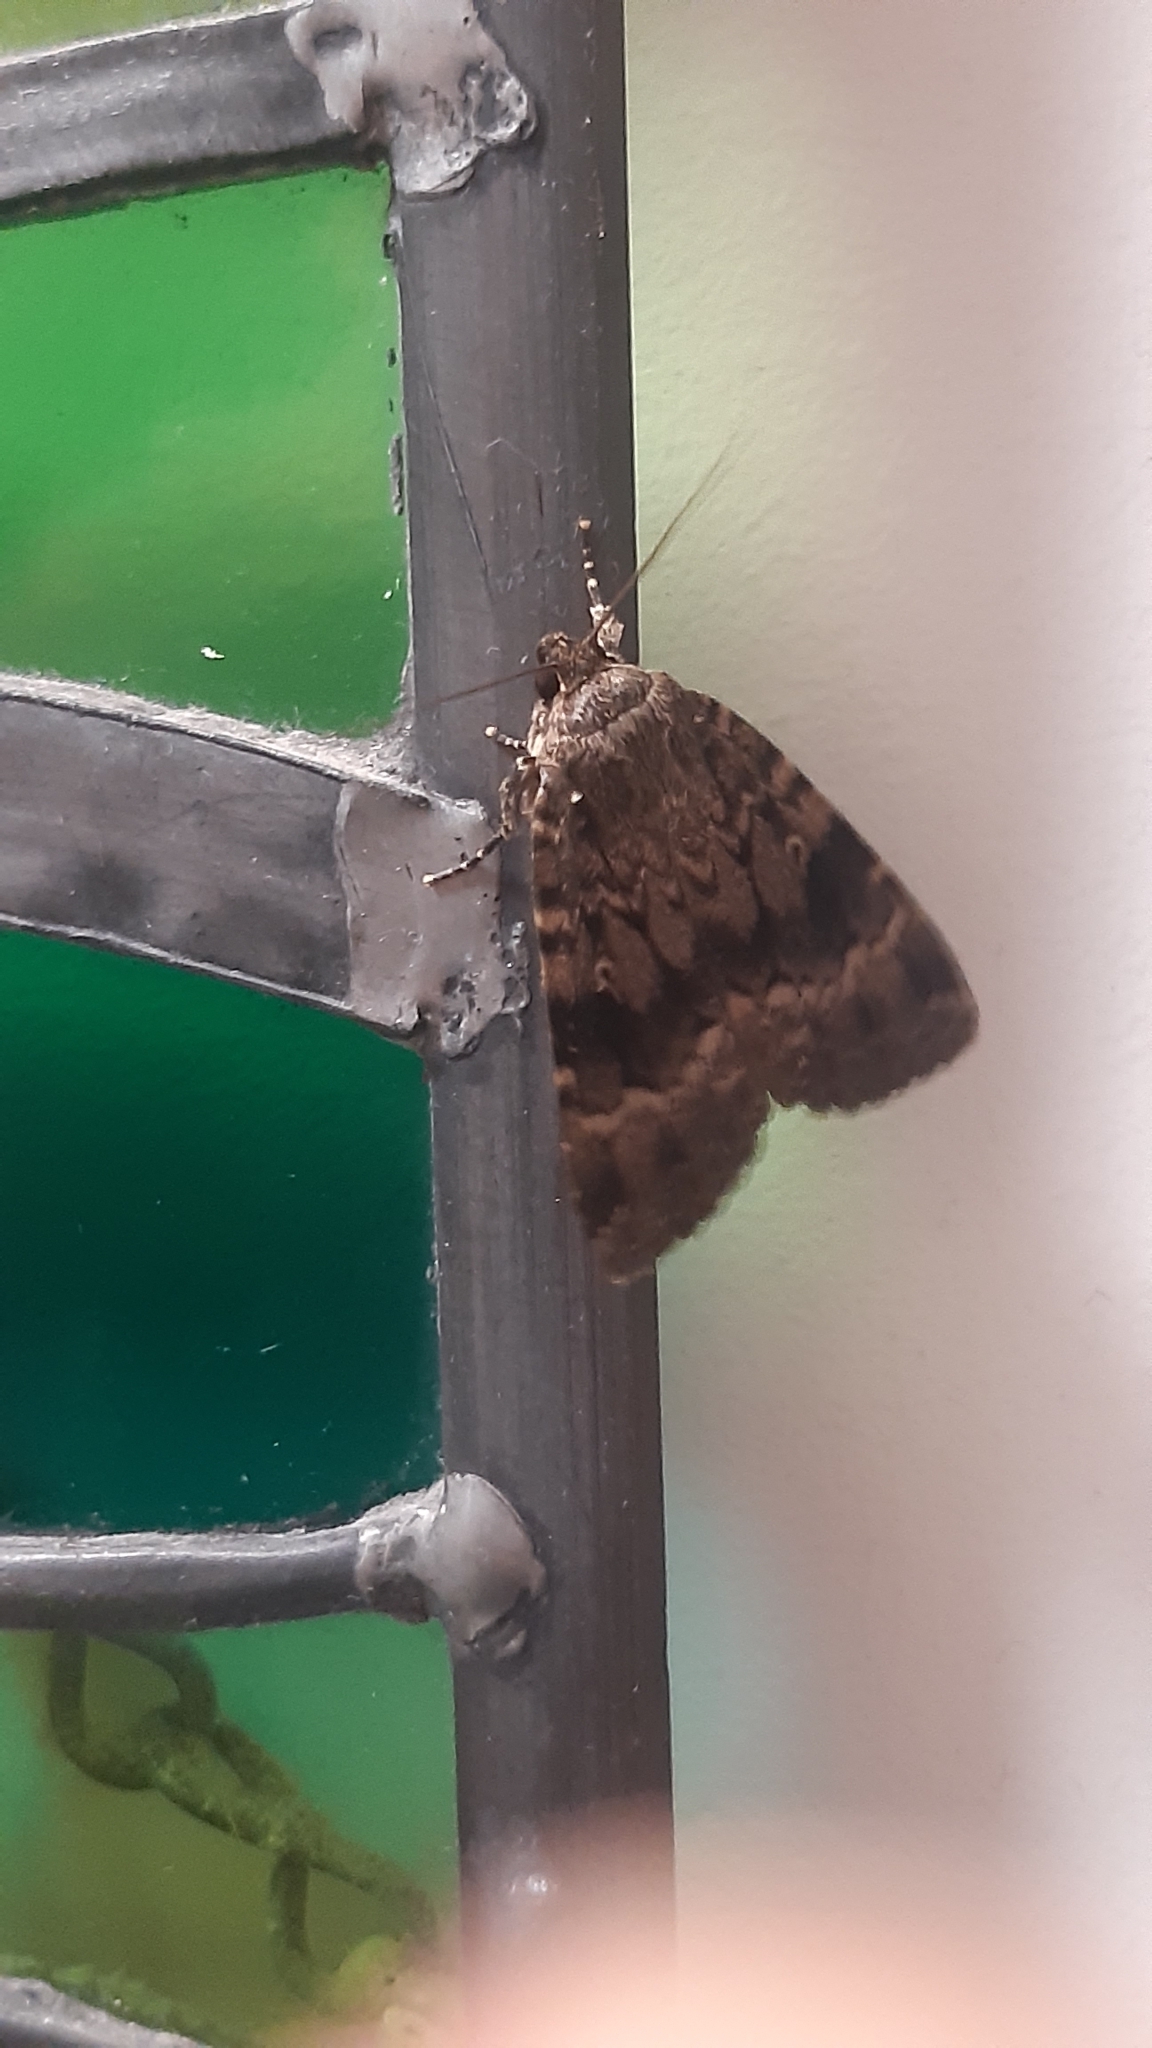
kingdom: Animalia
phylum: Arthropoda
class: Insecta
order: Lepidoptera
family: Noctuidae
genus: Amphipyra
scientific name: Amphipyra berbera
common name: Svensson's copper underwing
